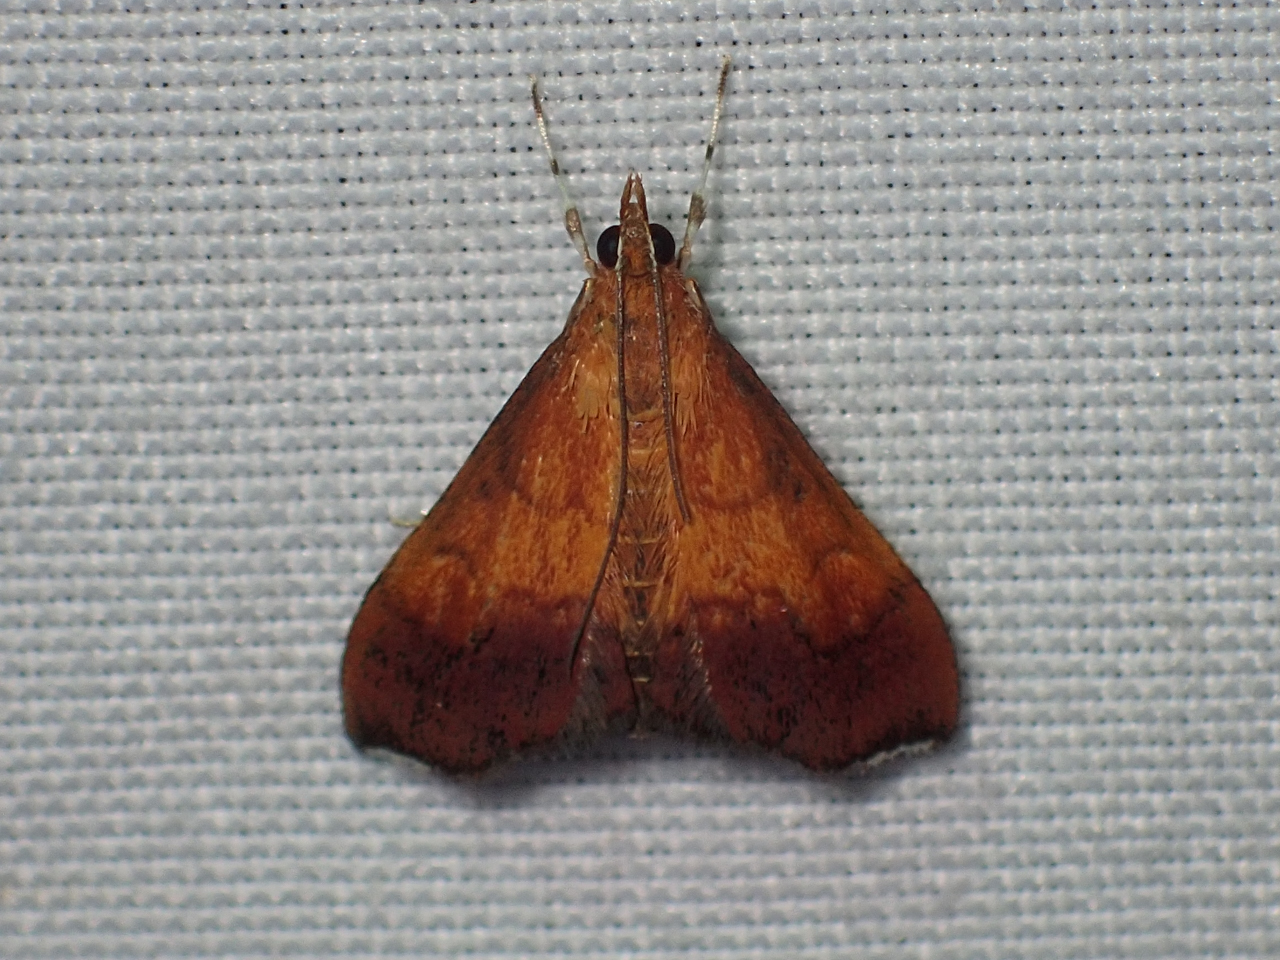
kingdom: Animalia
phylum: Arthropoda
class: Insecta
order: Lepidoptera
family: Crambidae
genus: Pyrausta
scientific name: Pyrausta bicoloralis
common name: Bicolored pyrausta moth
